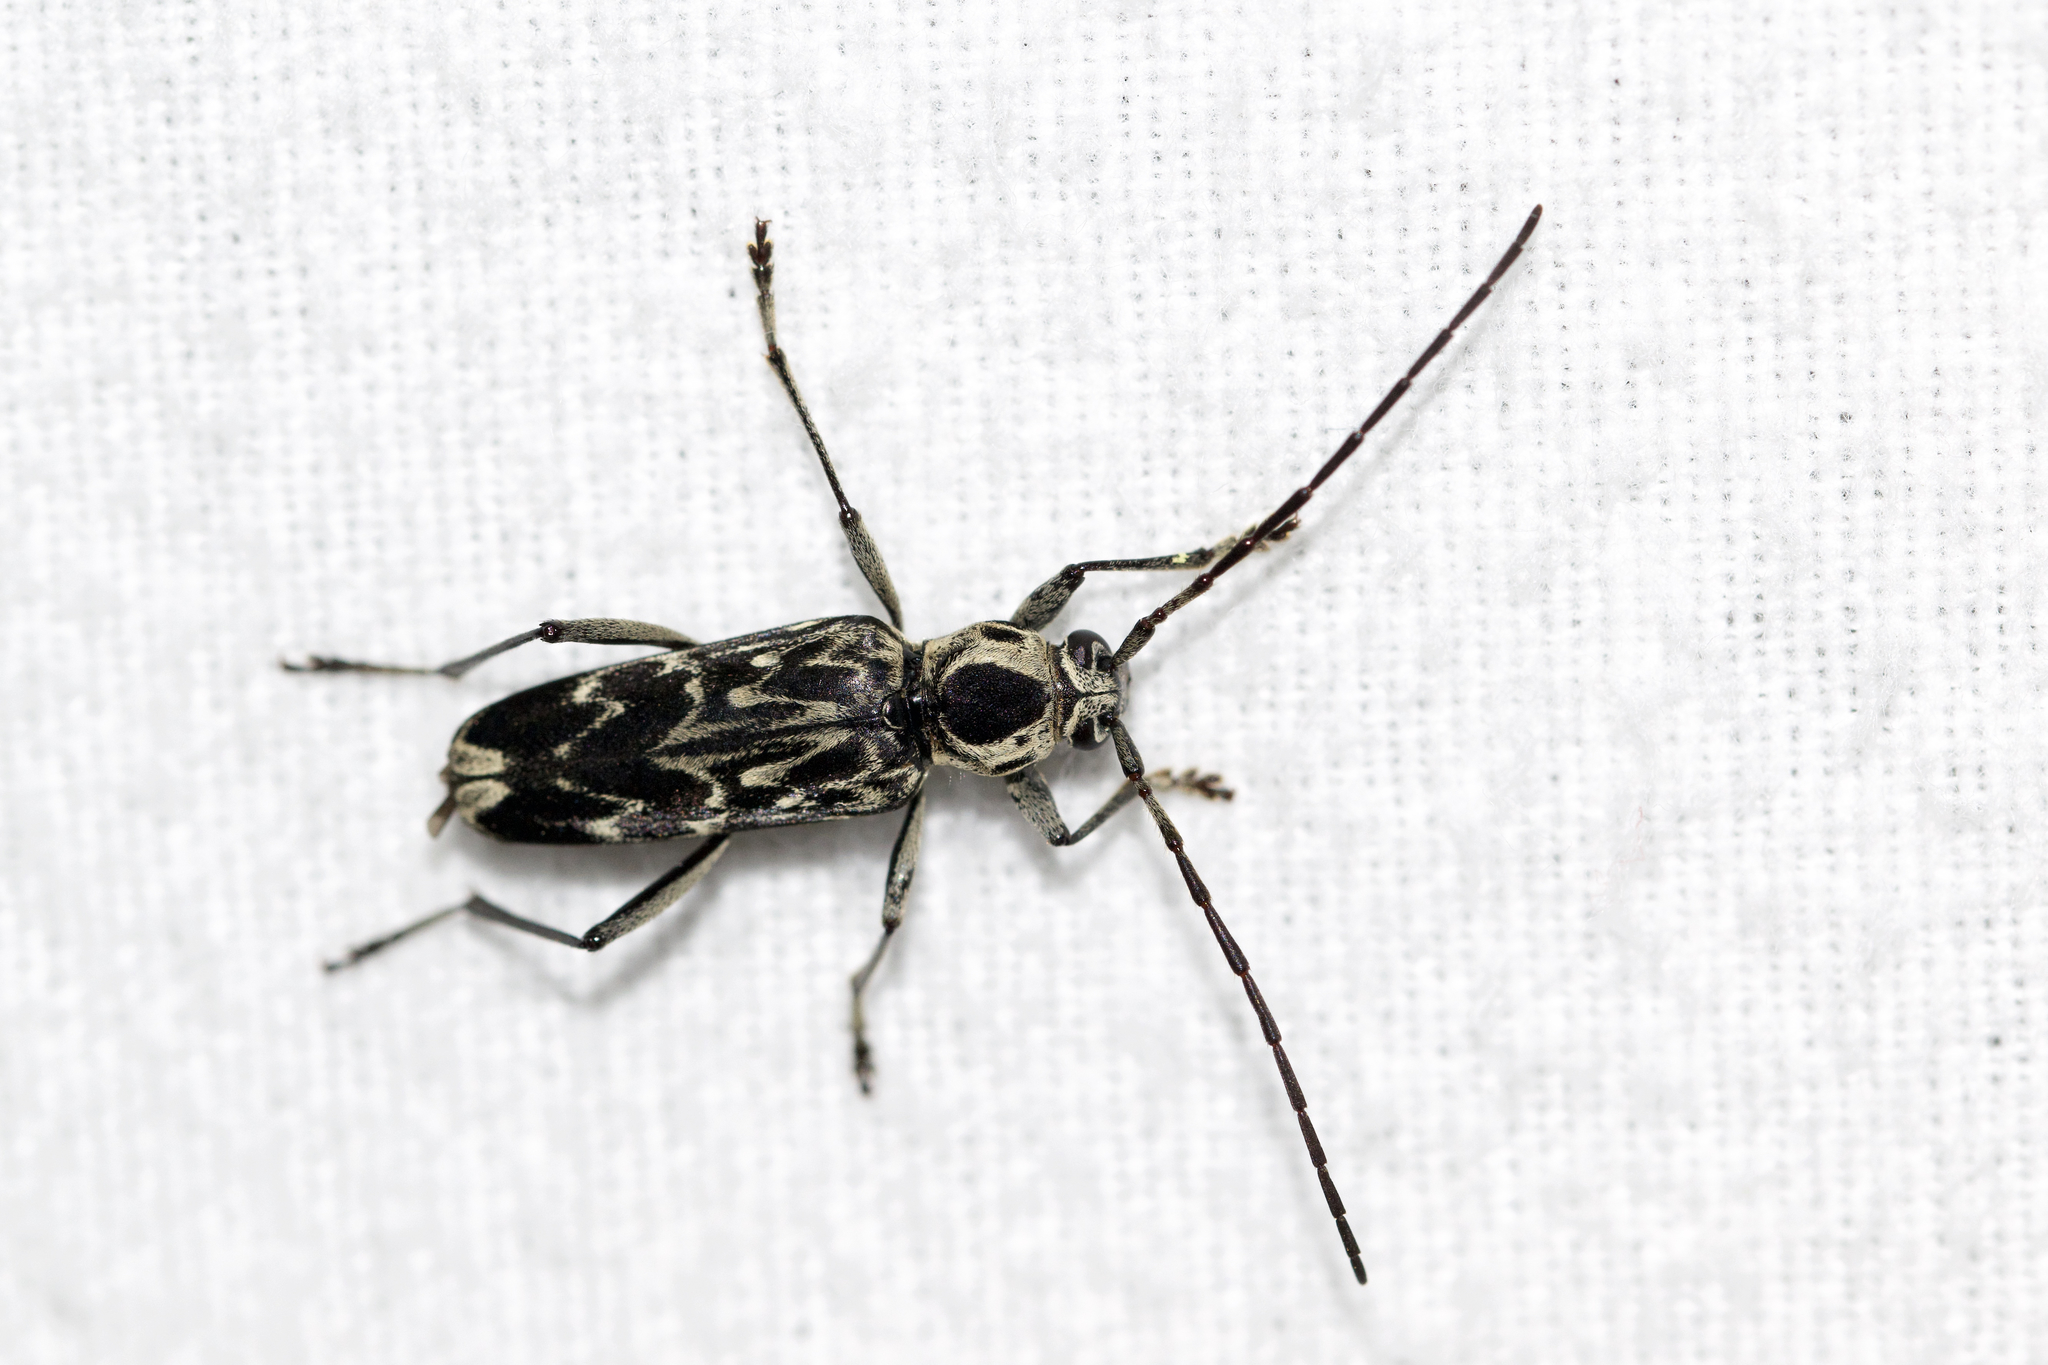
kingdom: Animalia
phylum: Arthropoda
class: Insecta
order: Coleoptera
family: Cerambycidae
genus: Sarosesthes
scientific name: Sarosesthes fulminans
